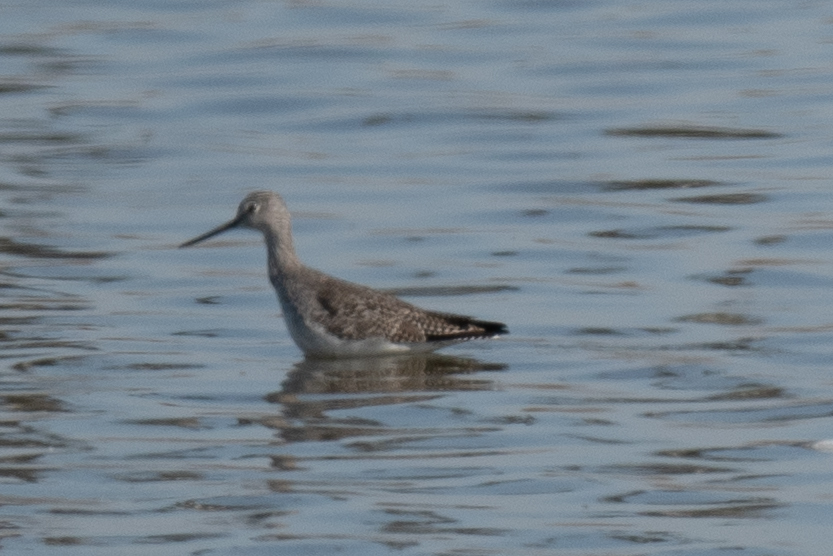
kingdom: Animalia
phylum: Chordata
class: Aves
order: Charadriiformes
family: Scolopacidae
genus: Tringa
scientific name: Tringa melanoleuca
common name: Greater yellowlegs
